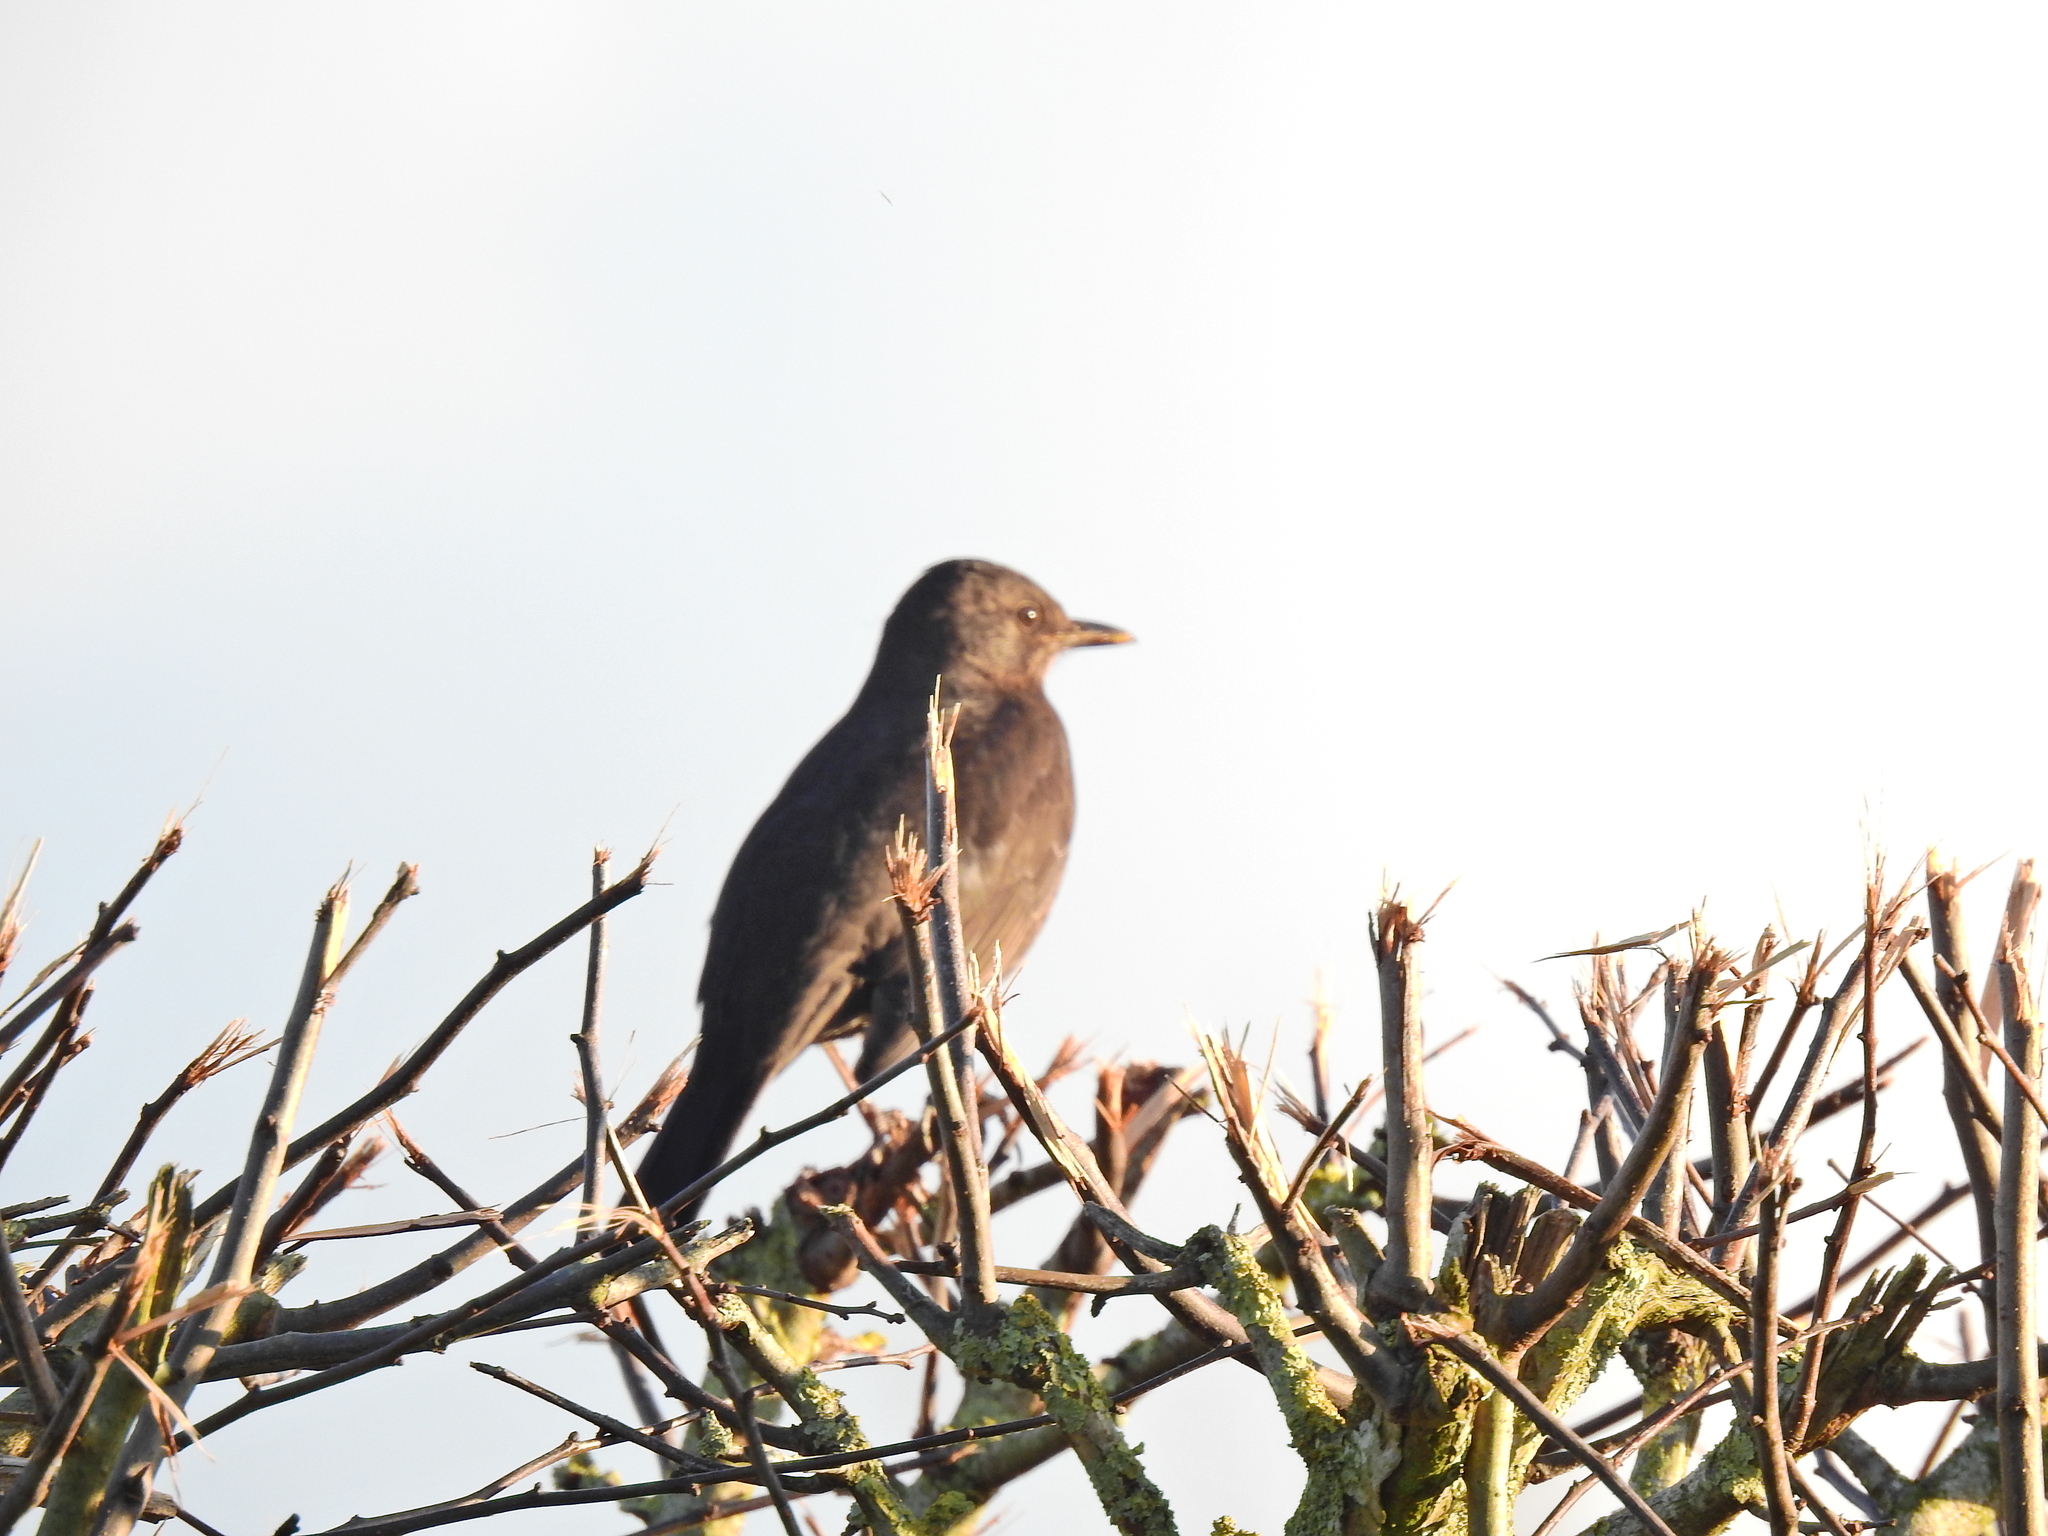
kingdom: Animalia
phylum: Chordata
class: Aves
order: Passeriformes
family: Turdidae
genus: Turdus
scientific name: Turdus merula
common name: Common blackbird
